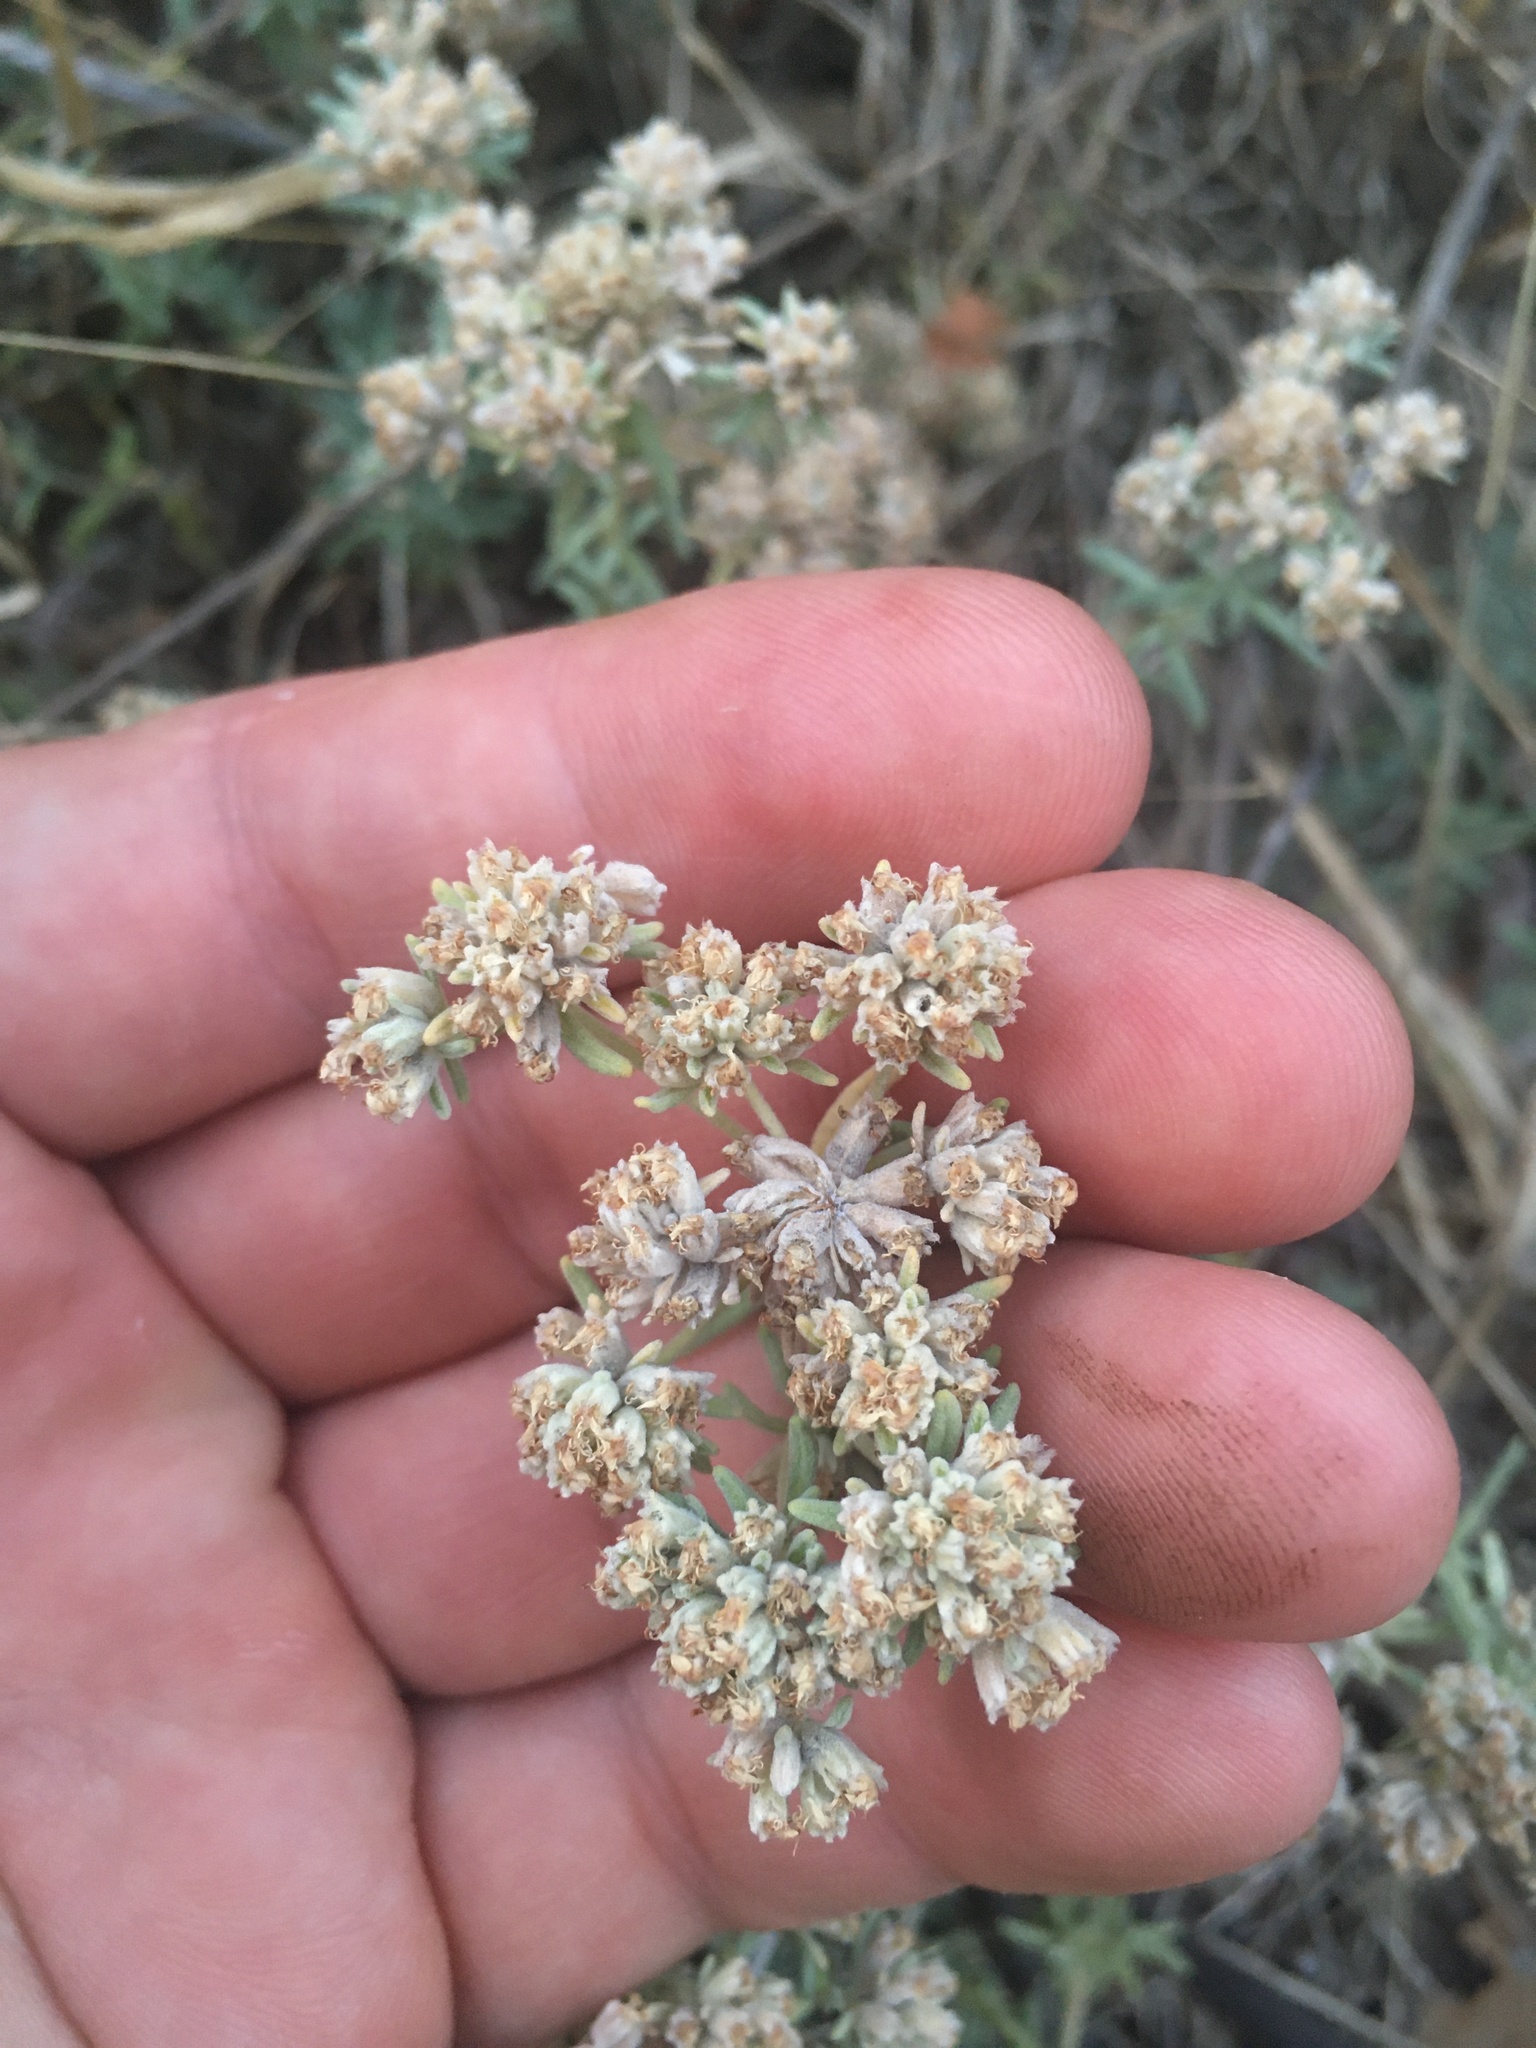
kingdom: Plantae
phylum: Tracheophyta
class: Magnoliopsida
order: Lamiales
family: Lamiaceae
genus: Teucrium
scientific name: Teucrium polium
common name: Poley
